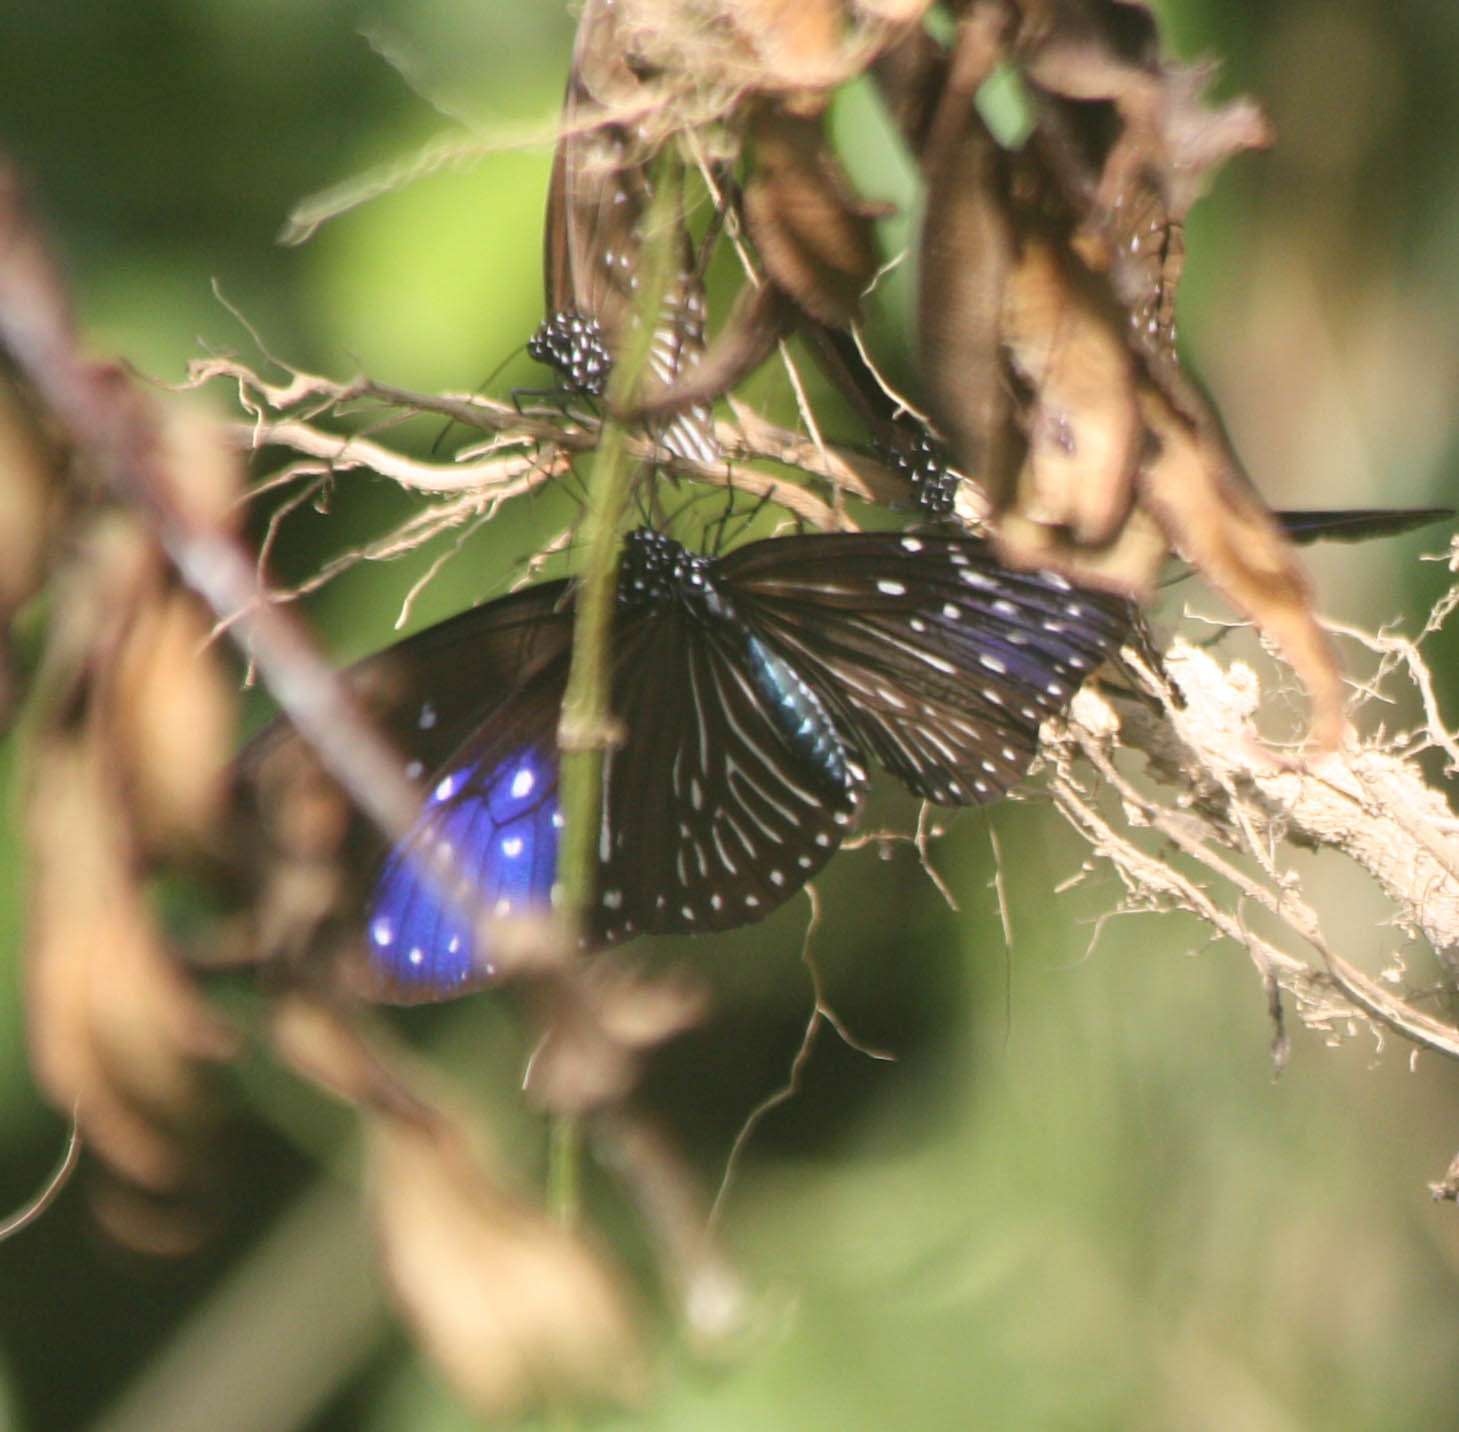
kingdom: Animalia
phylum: Arthropoda
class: Insecta
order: Lepidoptera
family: Nymphalidae
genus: Euploea
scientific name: Euploea mulciber
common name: Striped blue crow butterfly
